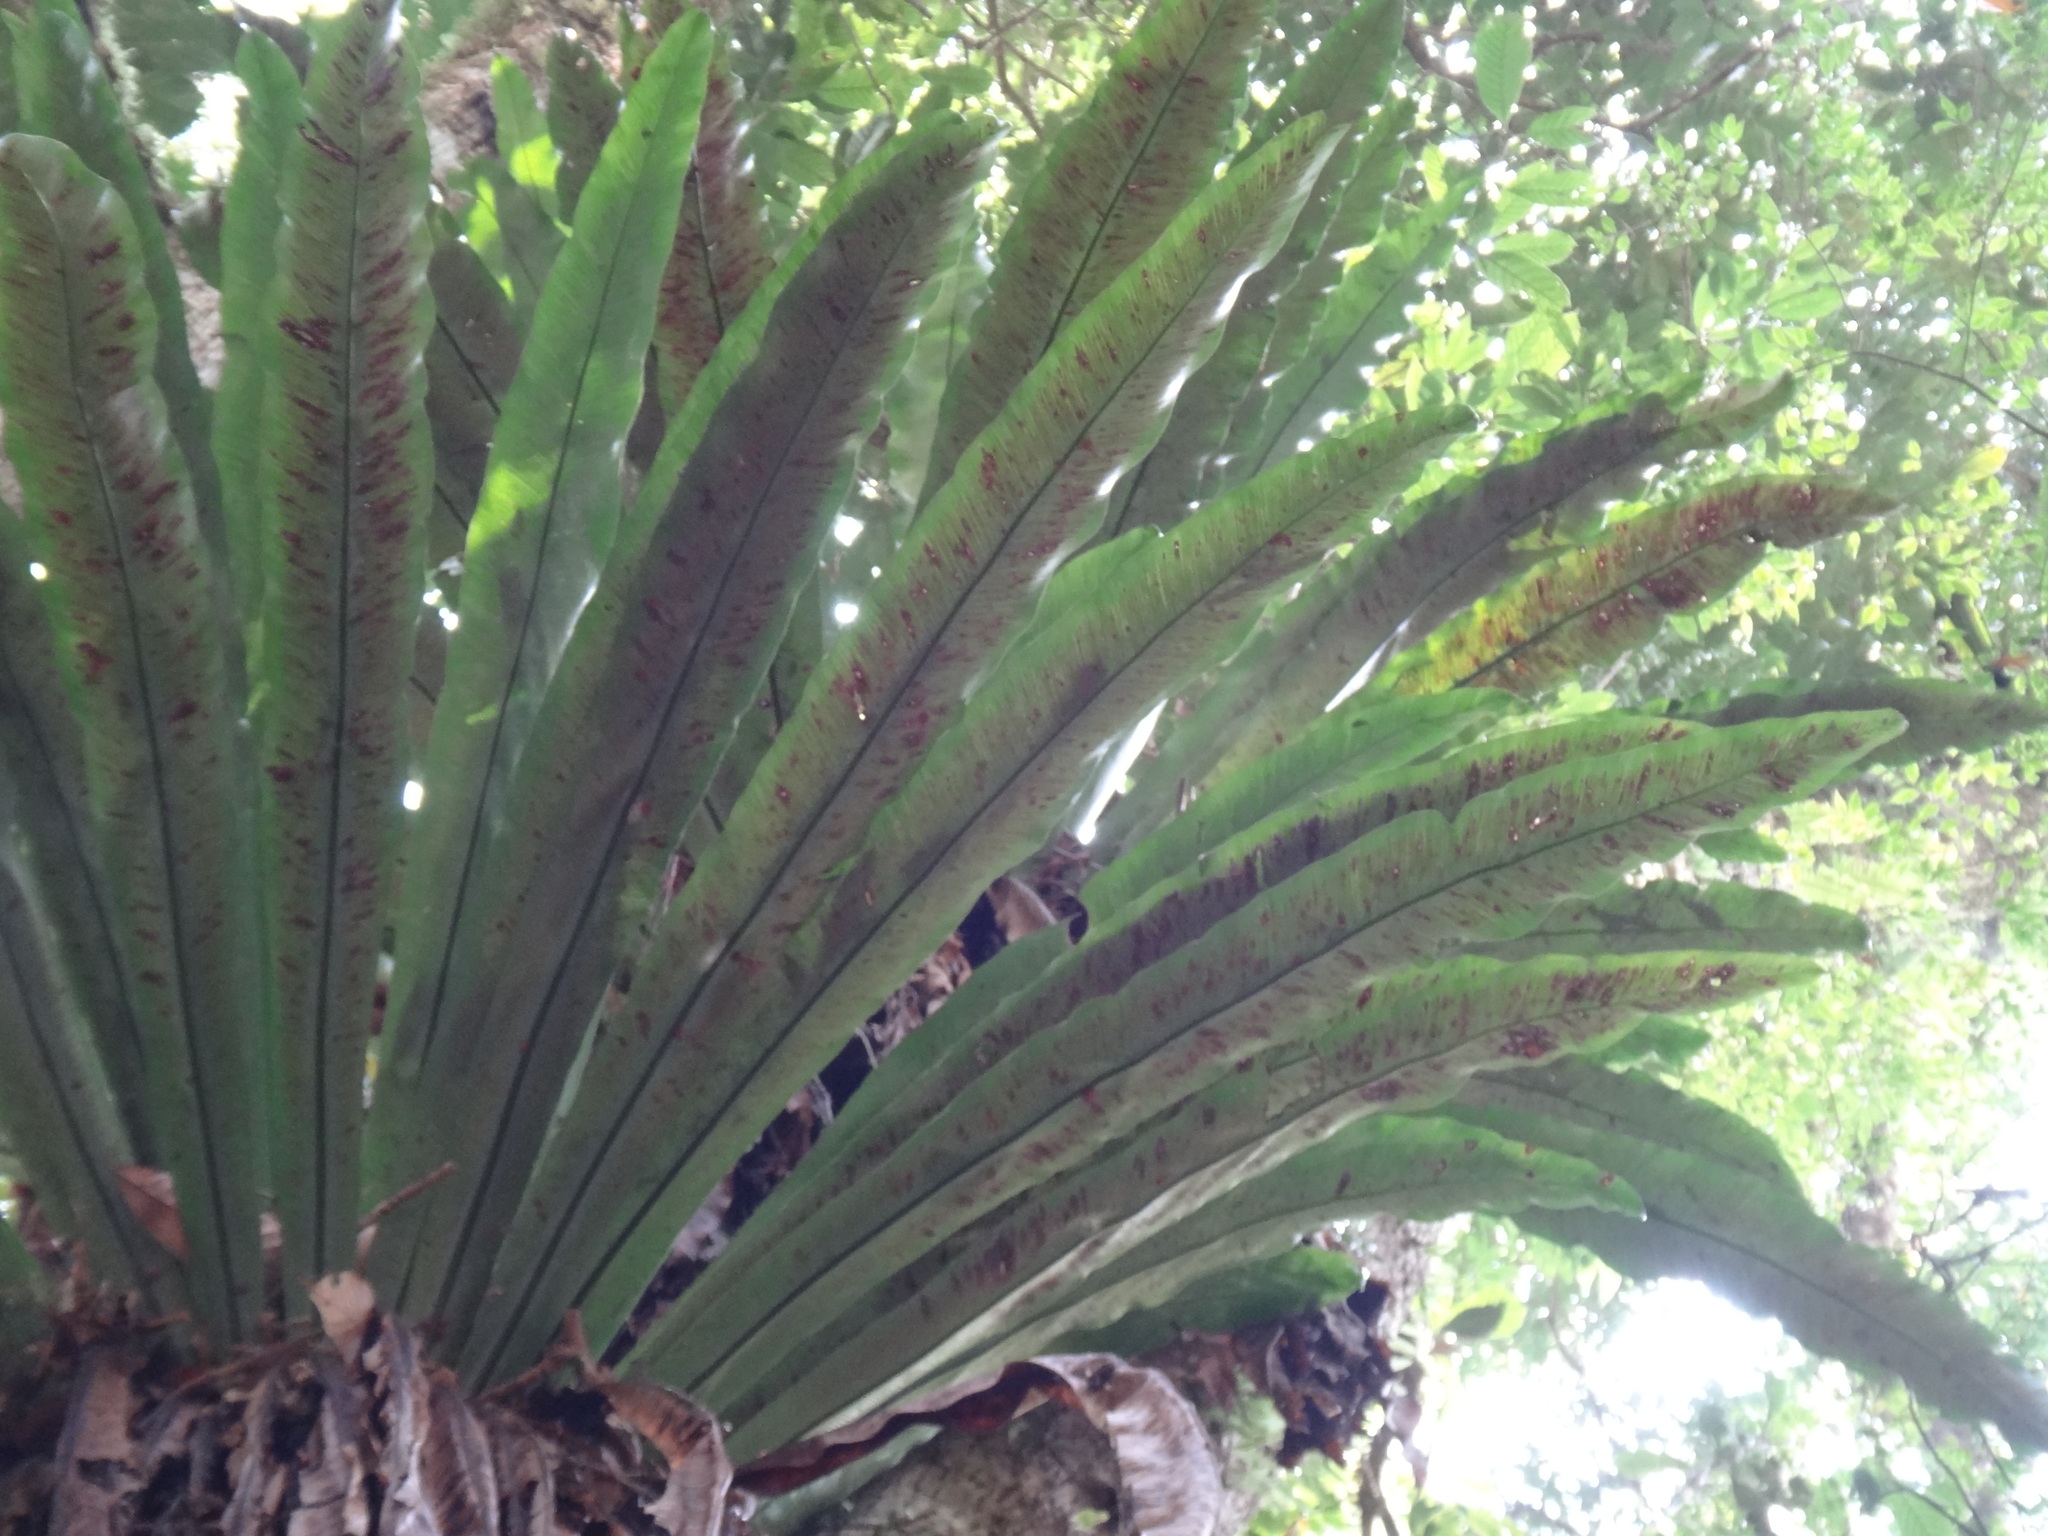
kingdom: Plantae
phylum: Tracheophyta
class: Polypodiopsida
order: Polypodiales
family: Aspleniaceae
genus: Asplenium
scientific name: Asplenium antiquum
